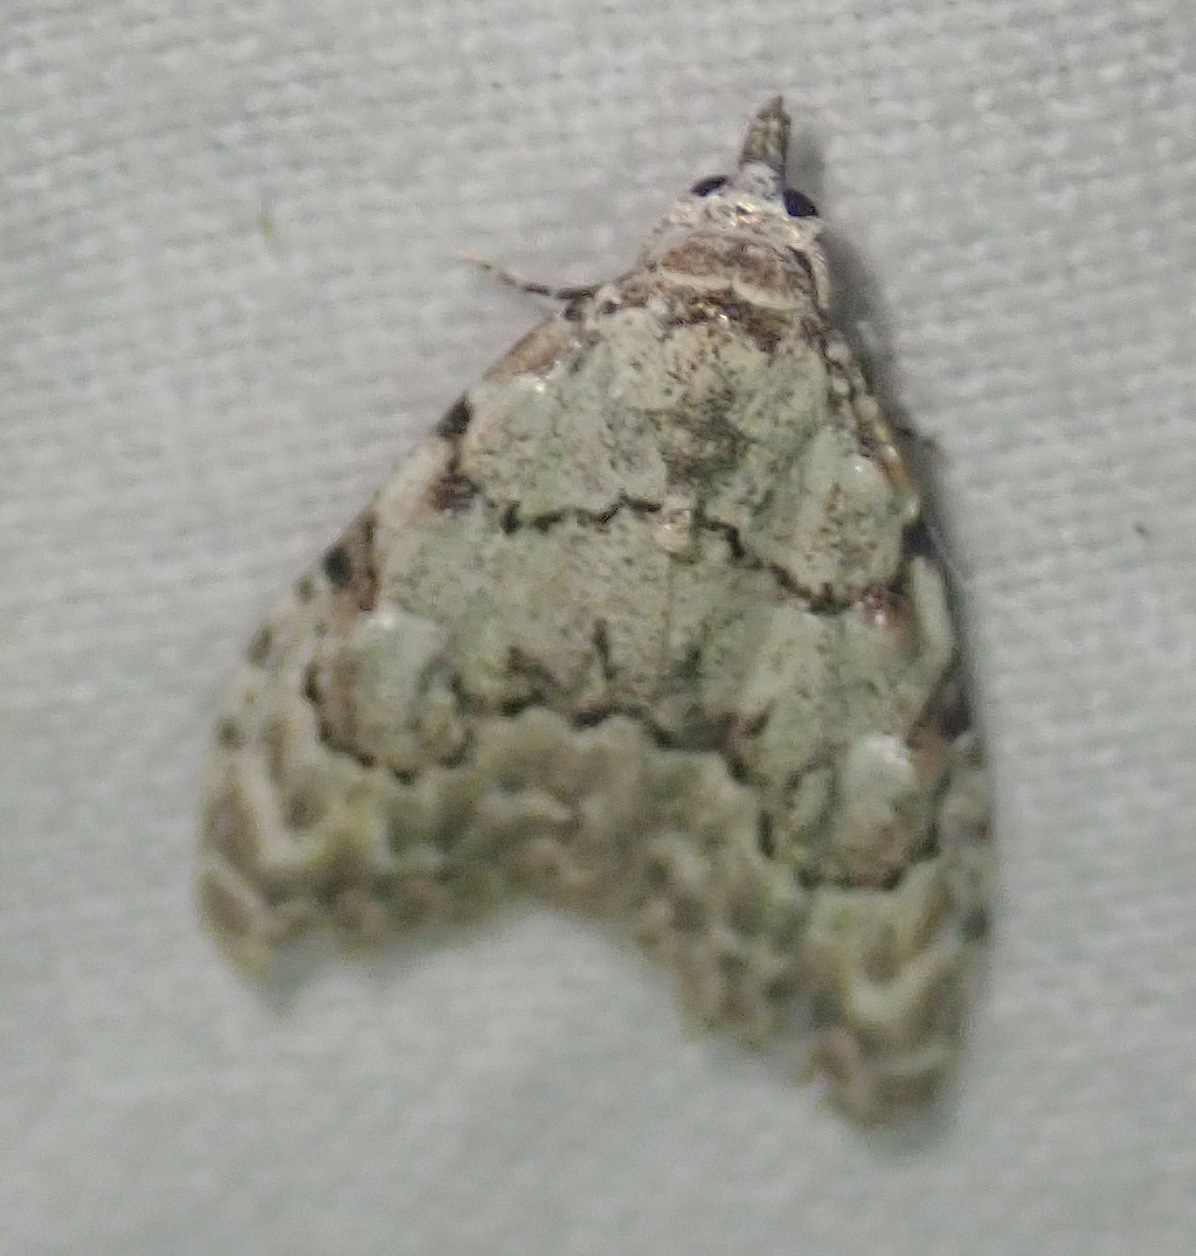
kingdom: Animalia
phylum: Arthropoda
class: Insecta
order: Lepidoptera
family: Nolidae
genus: Nola
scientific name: Nola confusalis
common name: Least black arches
